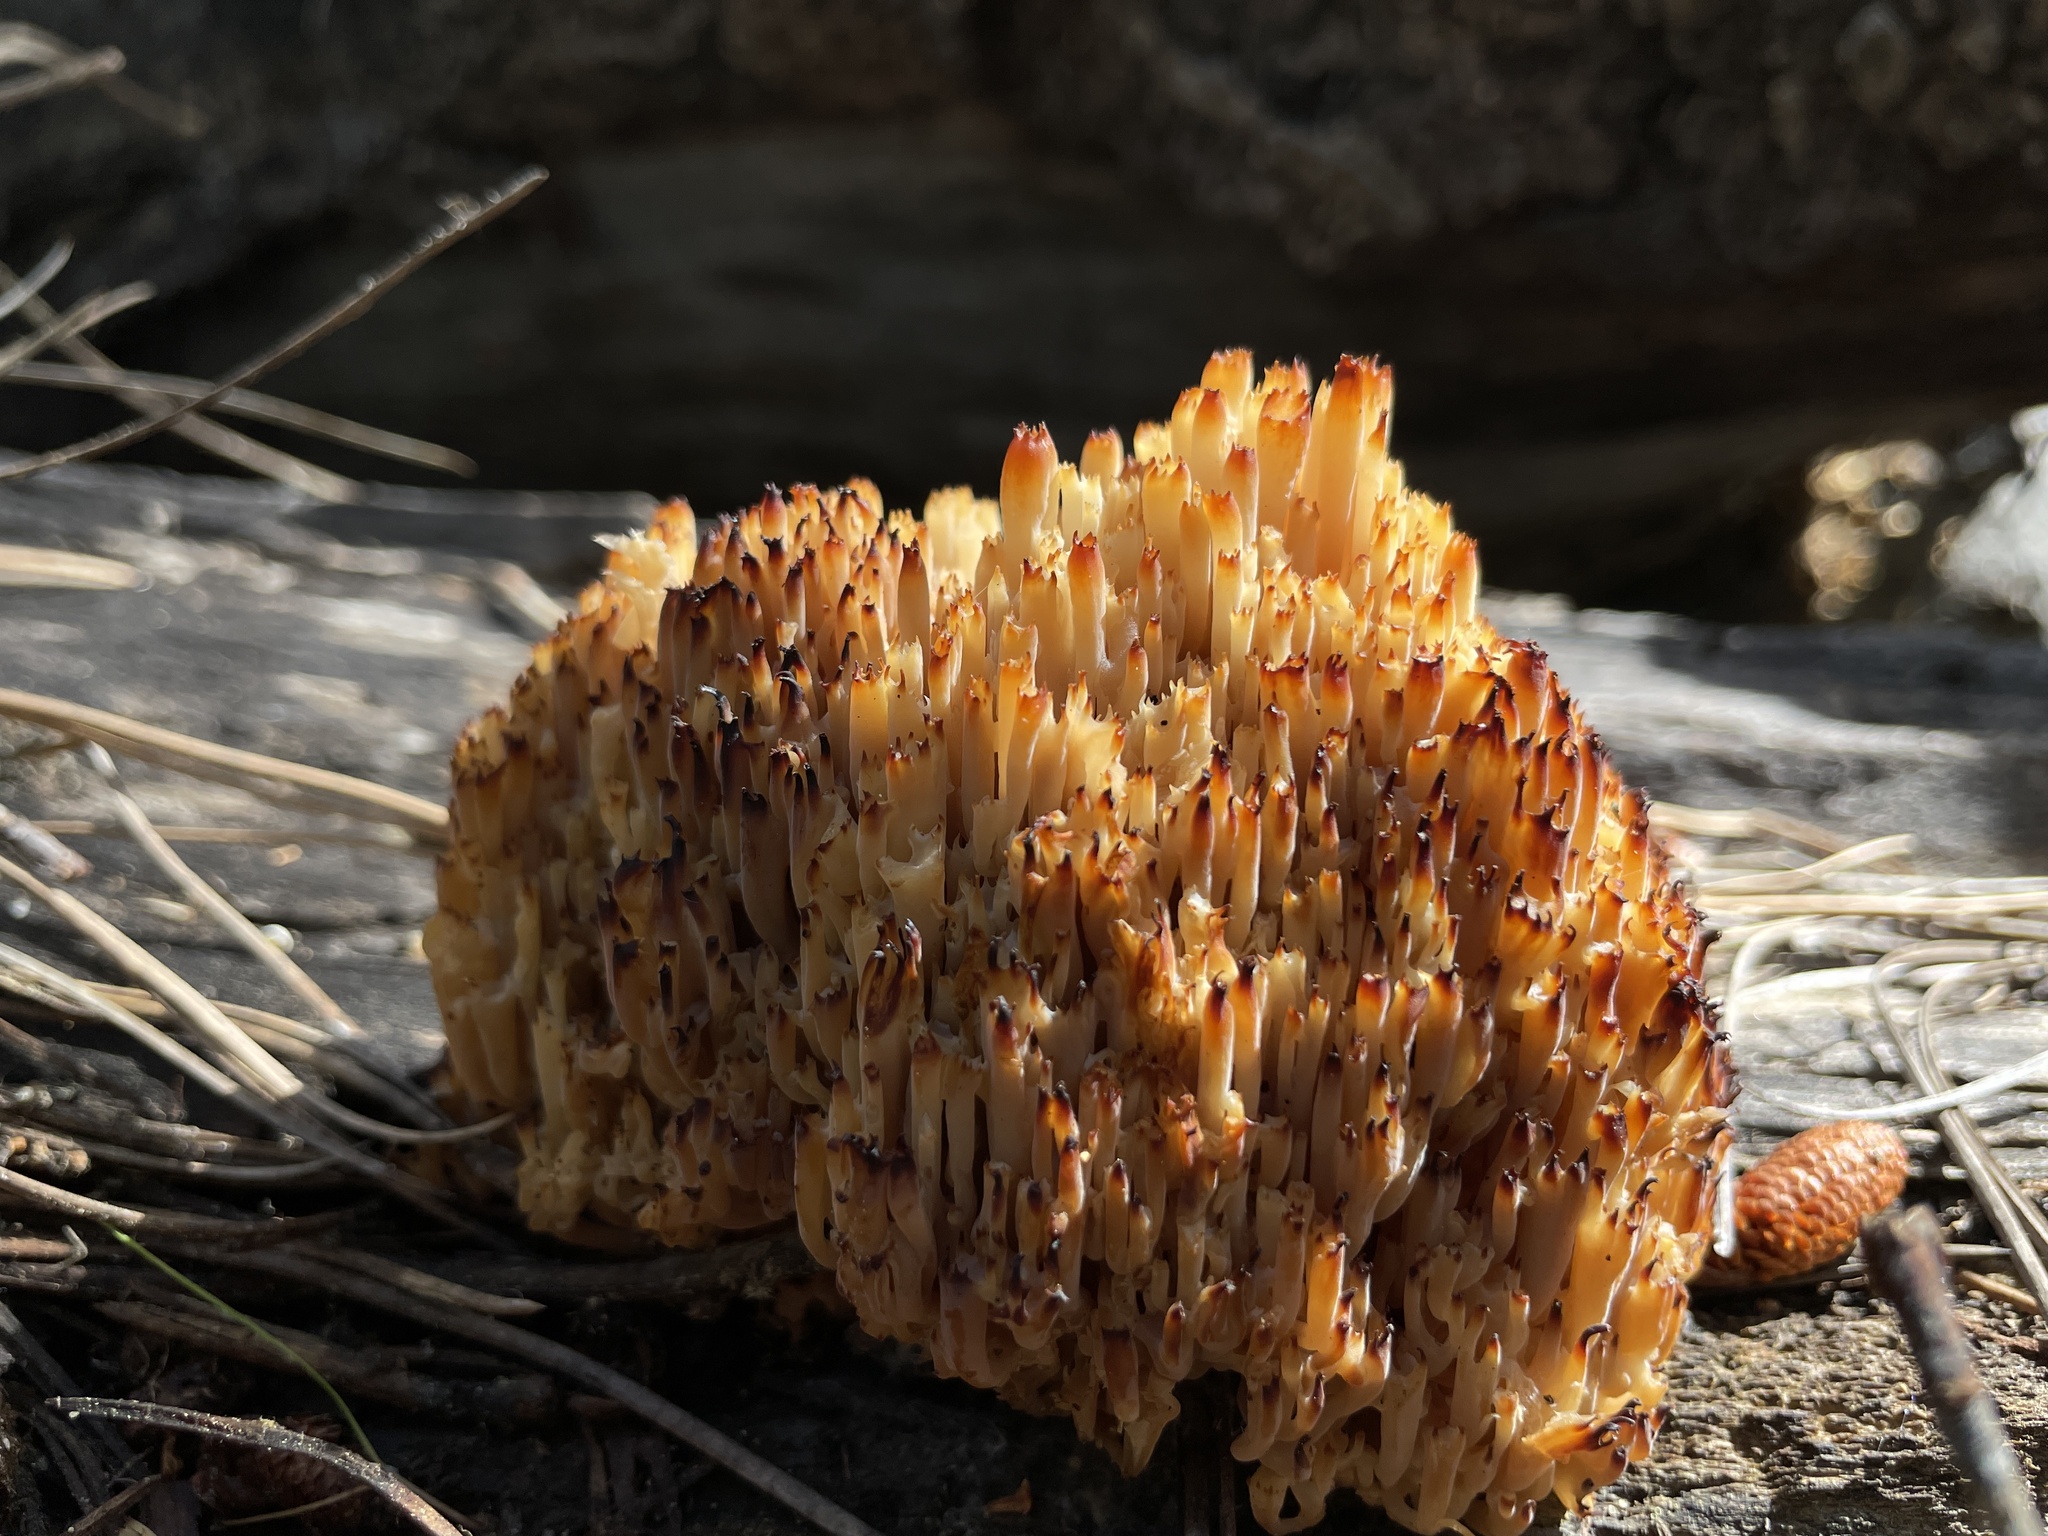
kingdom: Fungi
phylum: Basidiomycota
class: Agaricomycetes
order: Russulales
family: Auriscalpiaceae
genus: Artomyces
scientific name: Artomyces pyxidatus
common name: Crown-tipped coral fungus
